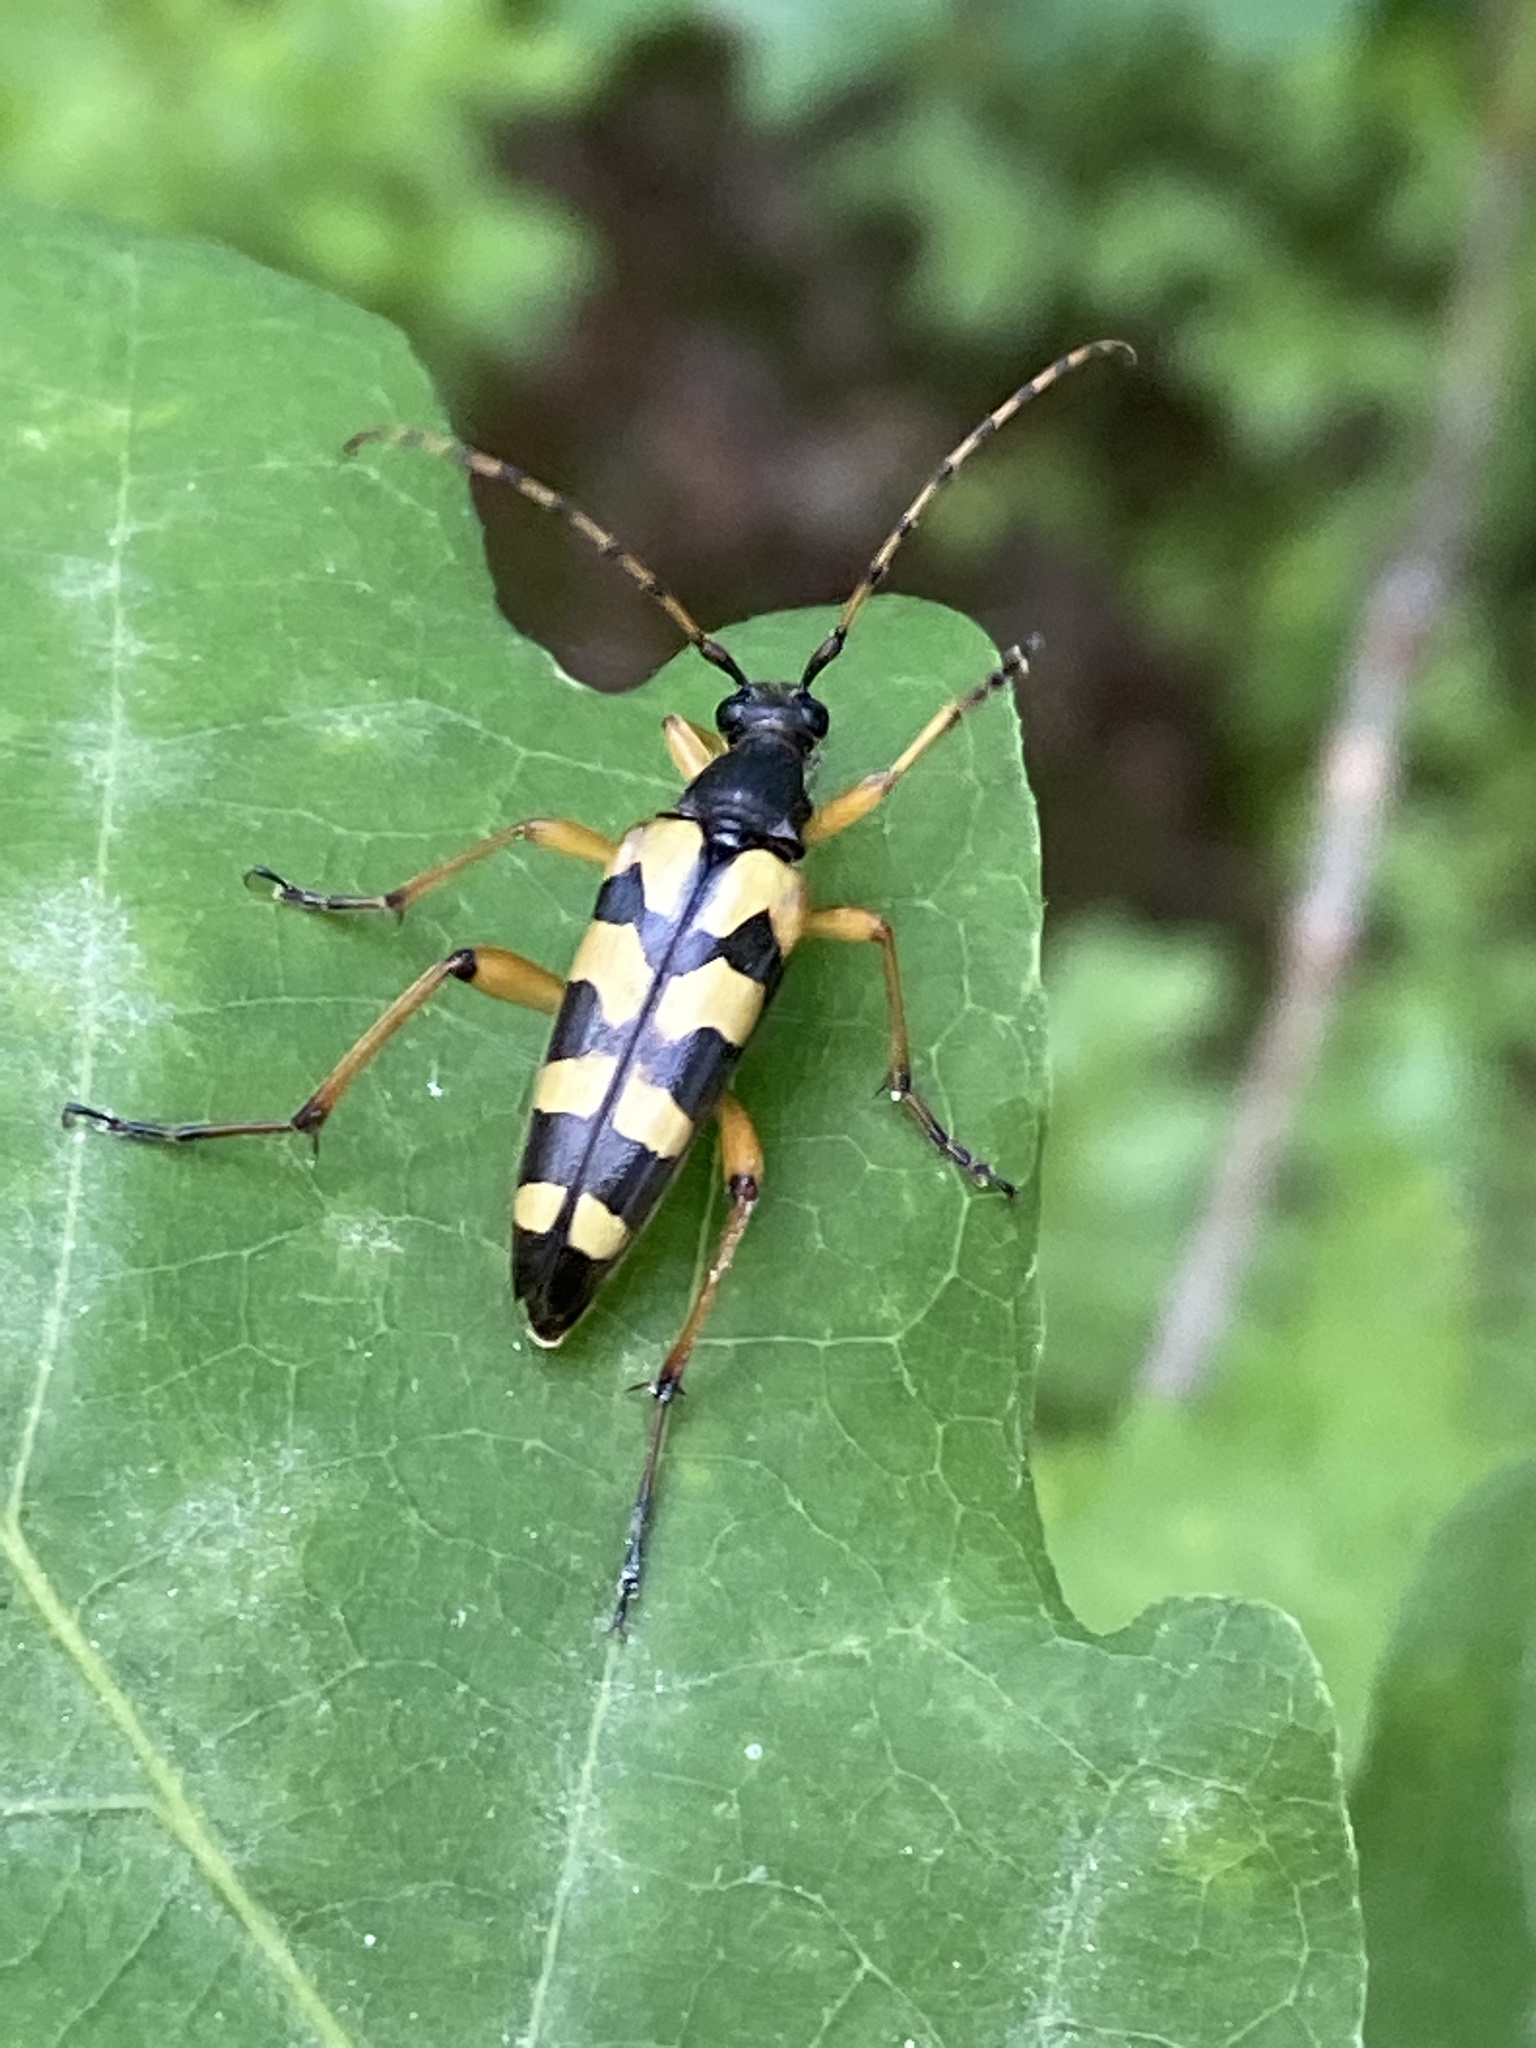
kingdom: Animalia
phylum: Arthropoda
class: Insecta
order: Coleoptera
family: Cerambycidae
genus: Rutpela
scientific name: Rutpela maculata
